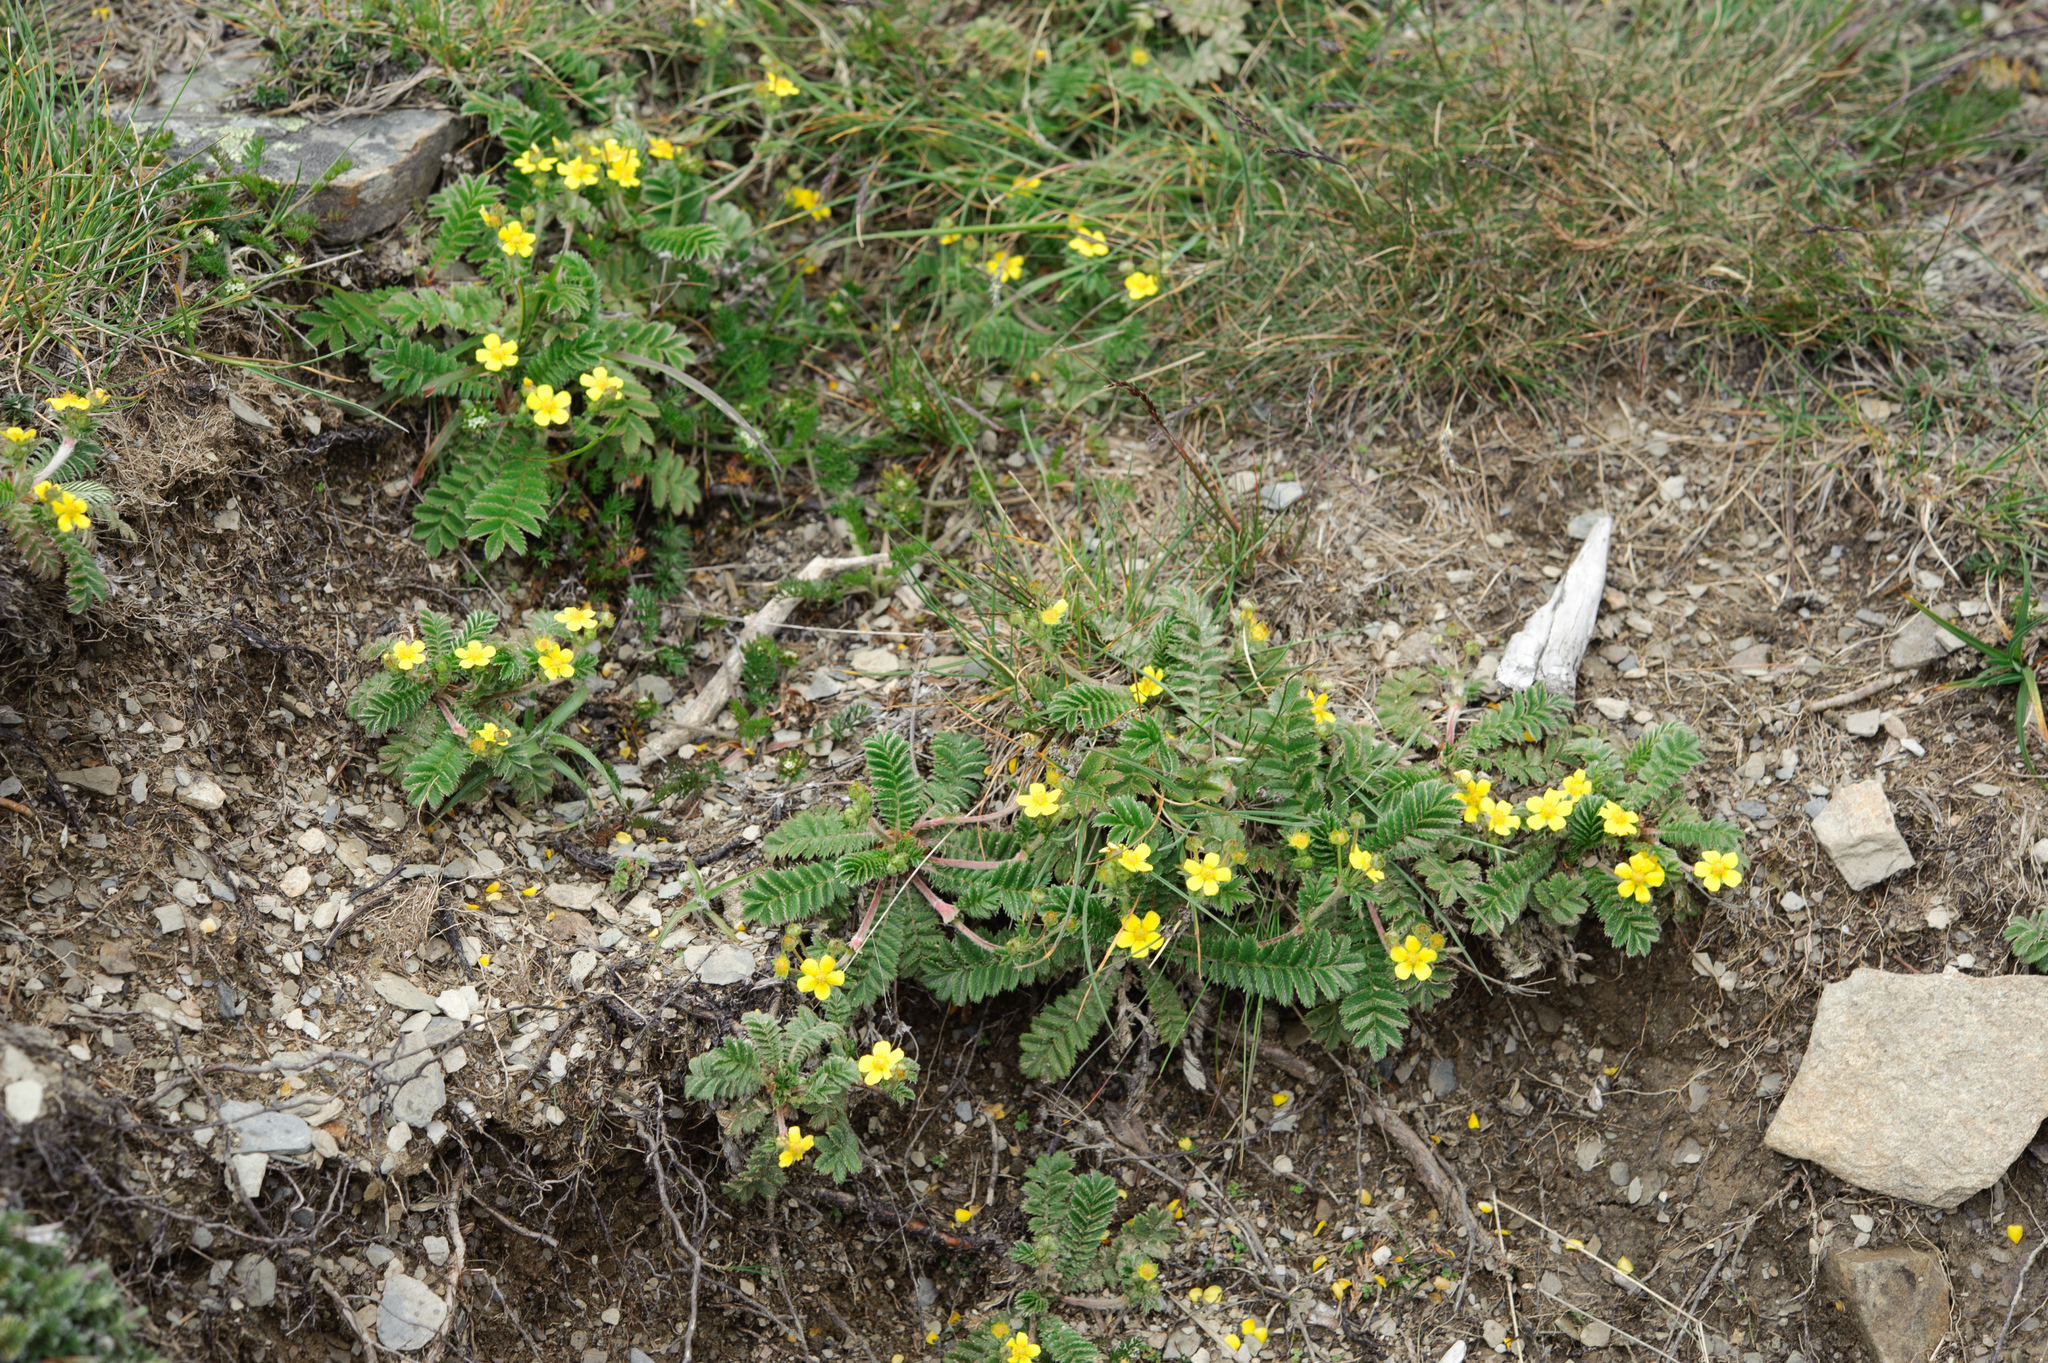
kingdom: Plantae
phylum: Tracheophyta
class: Magnoliopsida
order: Rosales
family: Rosaceae
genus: Argentina
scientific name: Argentina leuconota
